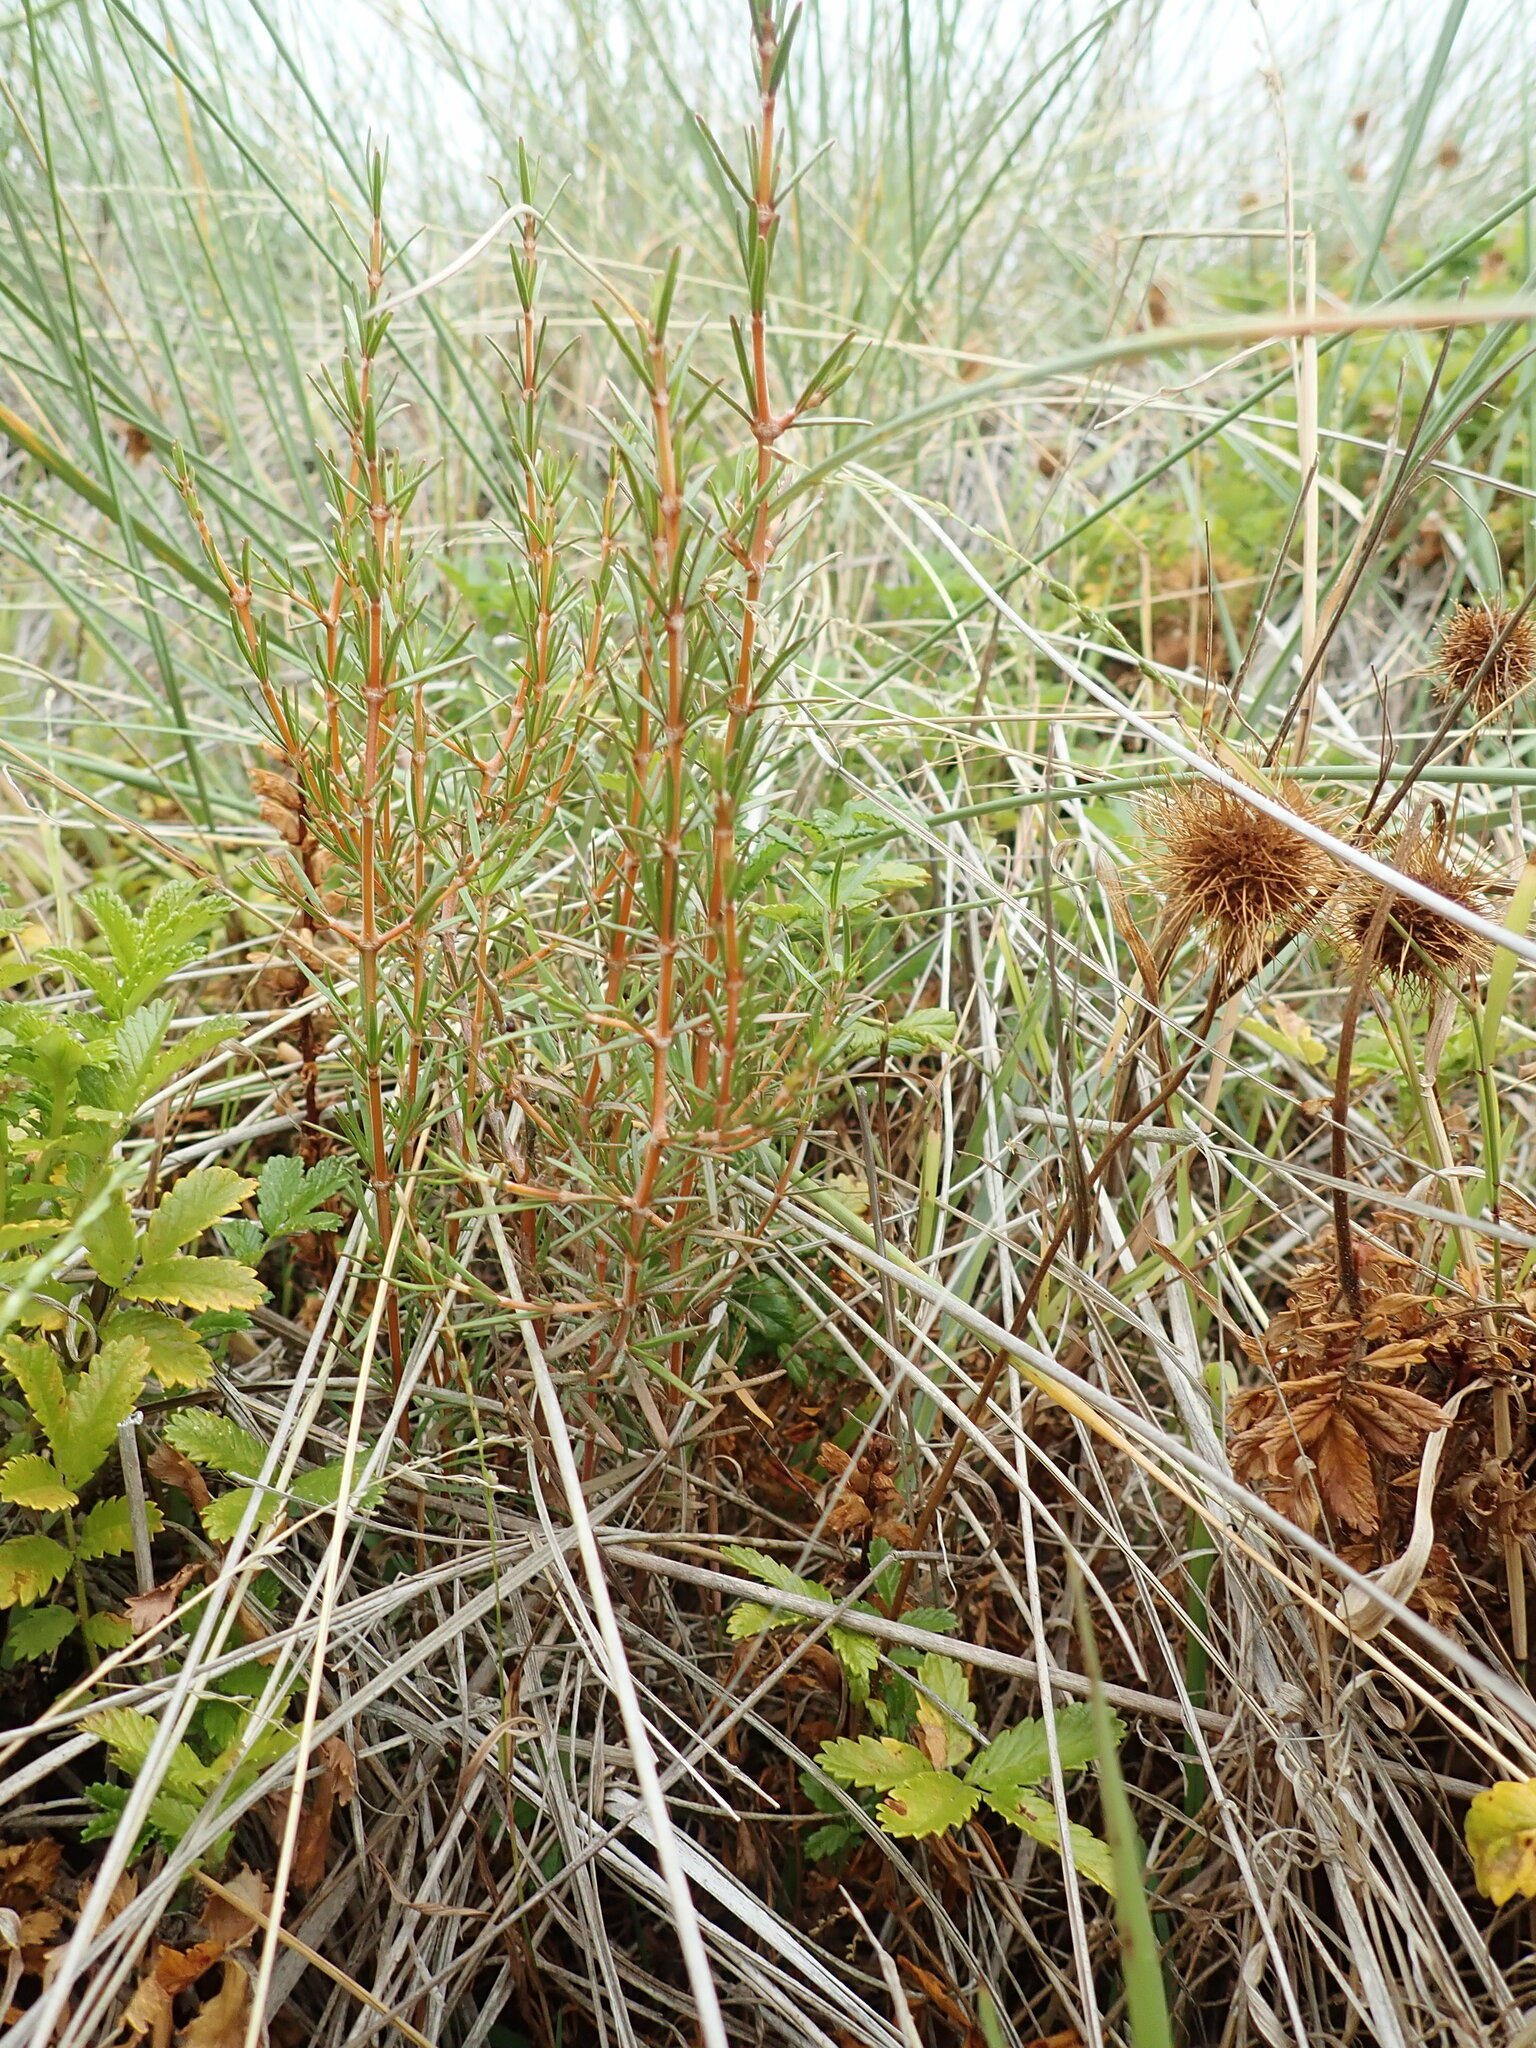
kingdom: Plantae
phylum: Tracheophyta
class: Magnoliopsida
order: Gentianales
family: Rubiaceae
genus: Coprosma
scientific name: Coprosma acerosa
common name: Sand coprosma
